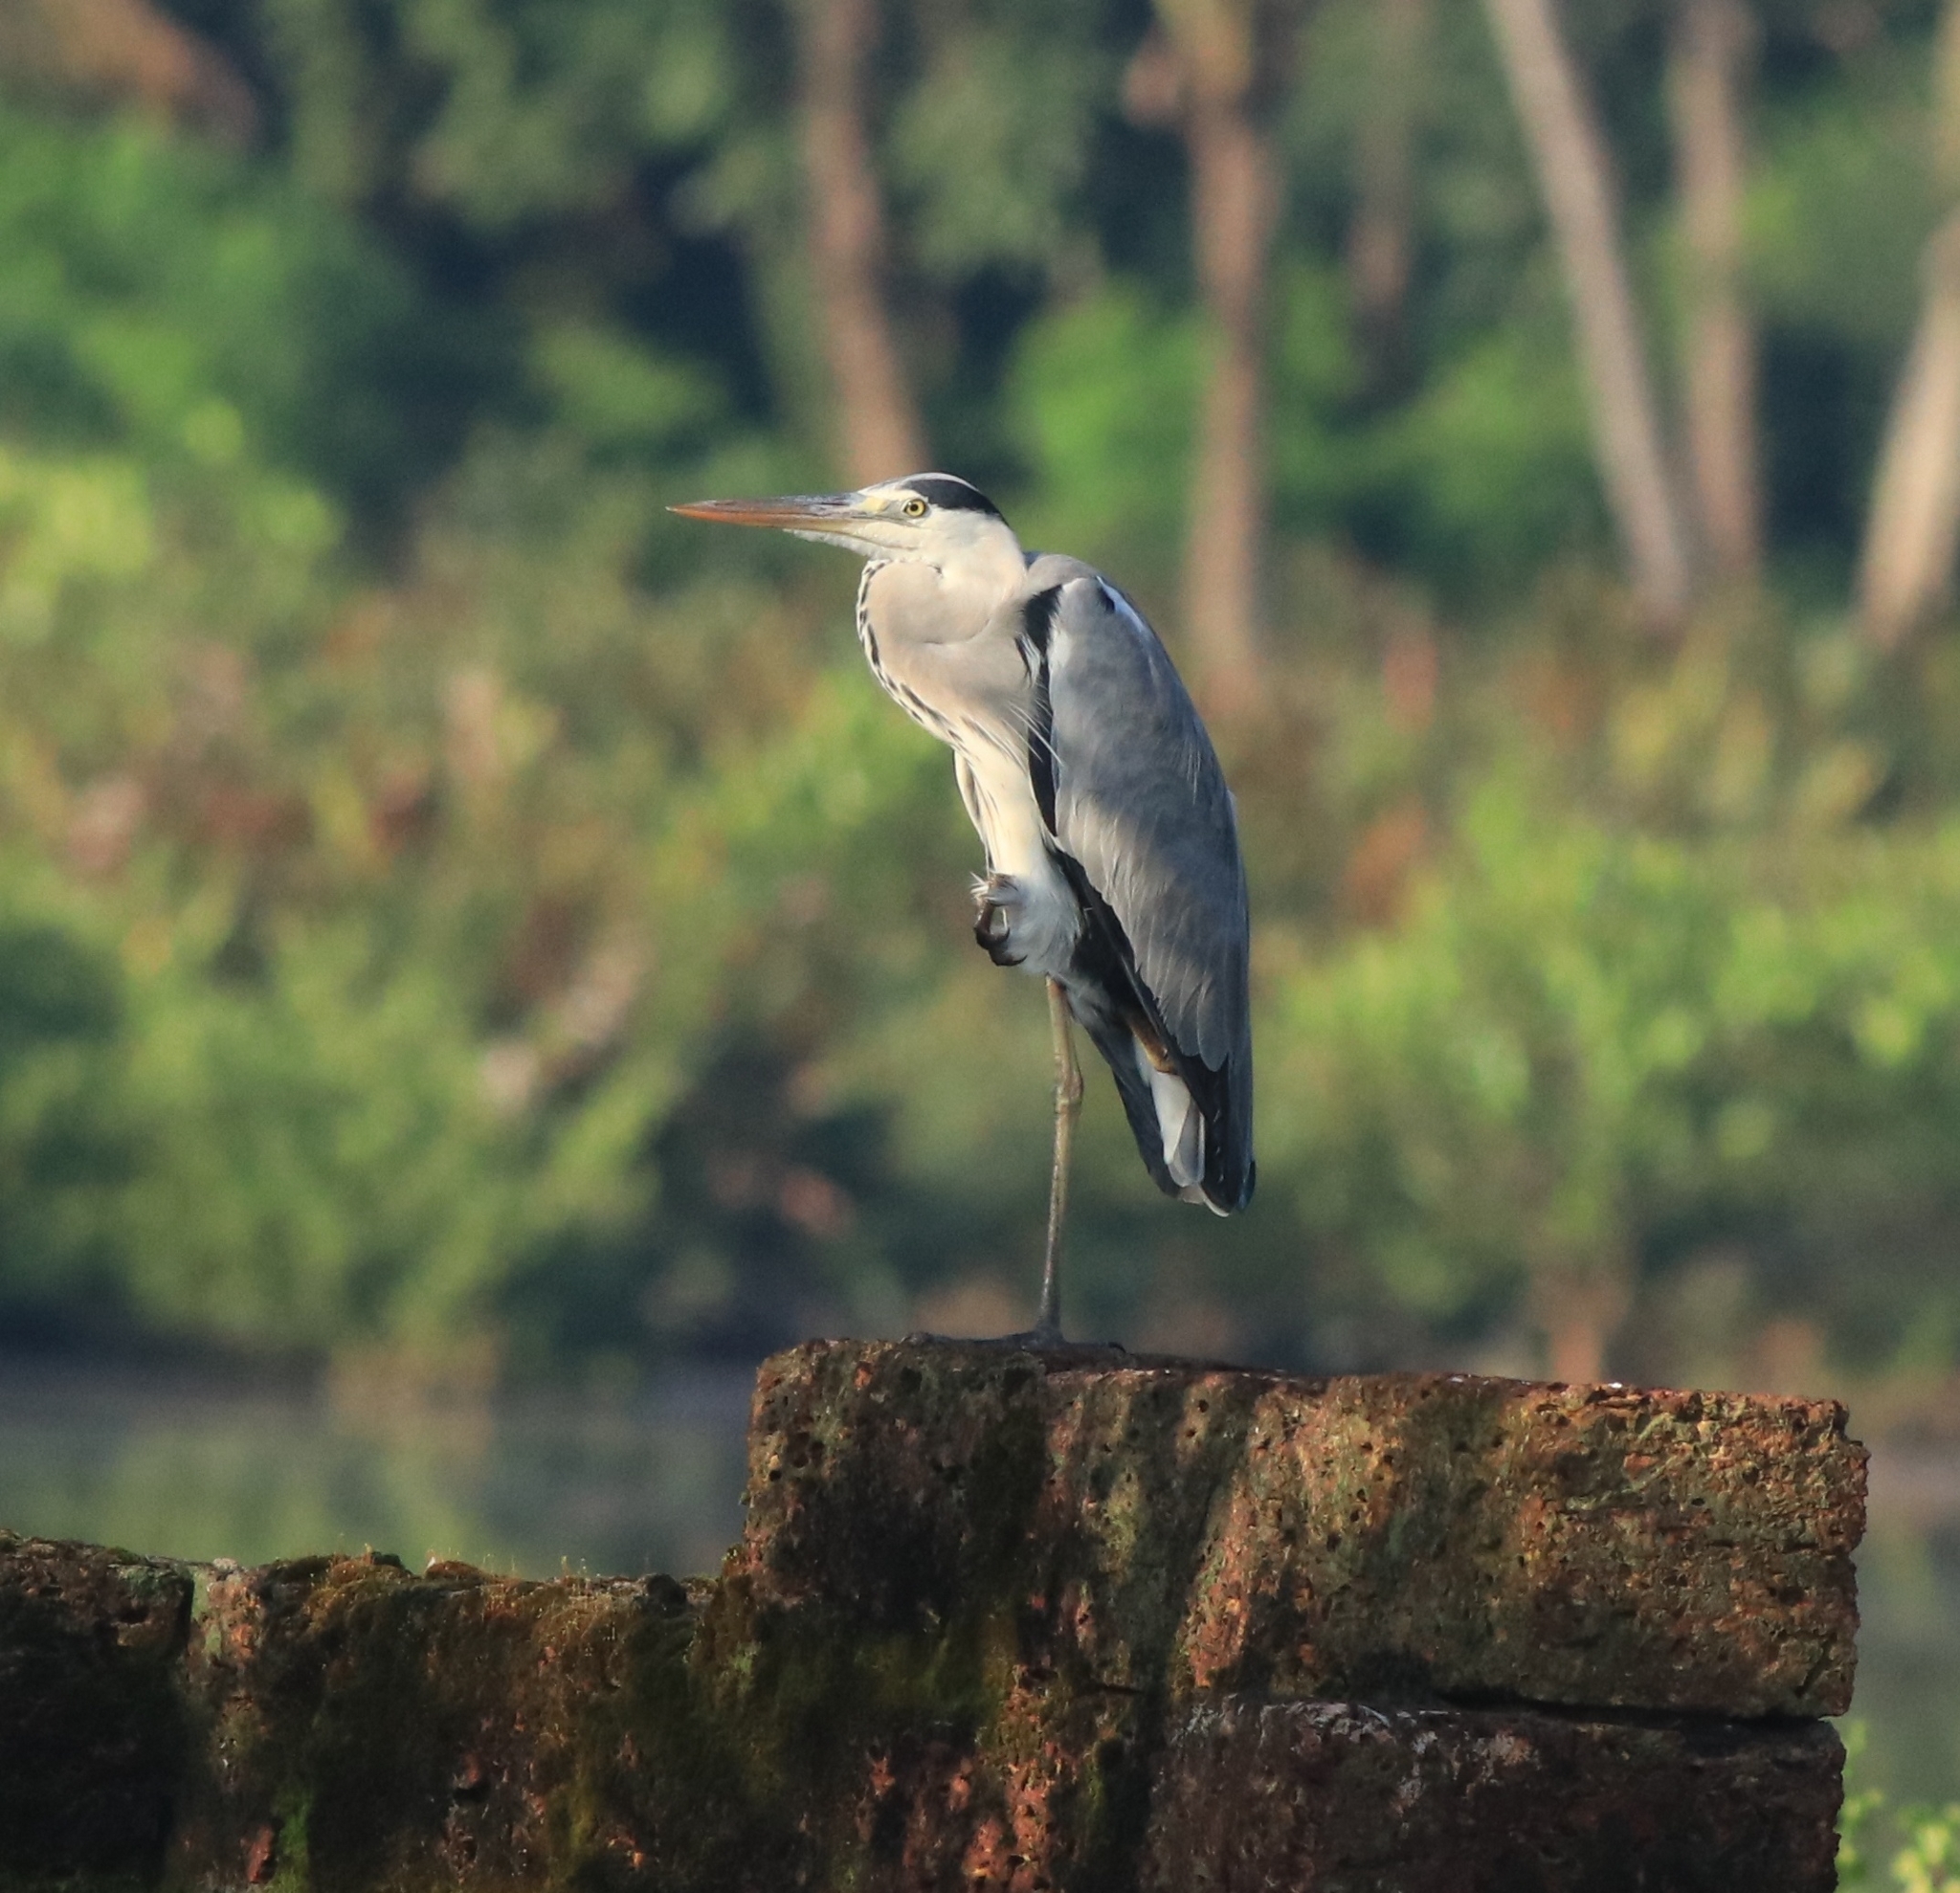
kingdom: Animalia
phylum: Chordata
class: Aves
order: Pelecaniformes
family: Ardeidae
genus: Ardea
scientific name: Ardea cinerea
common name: Grey heron
